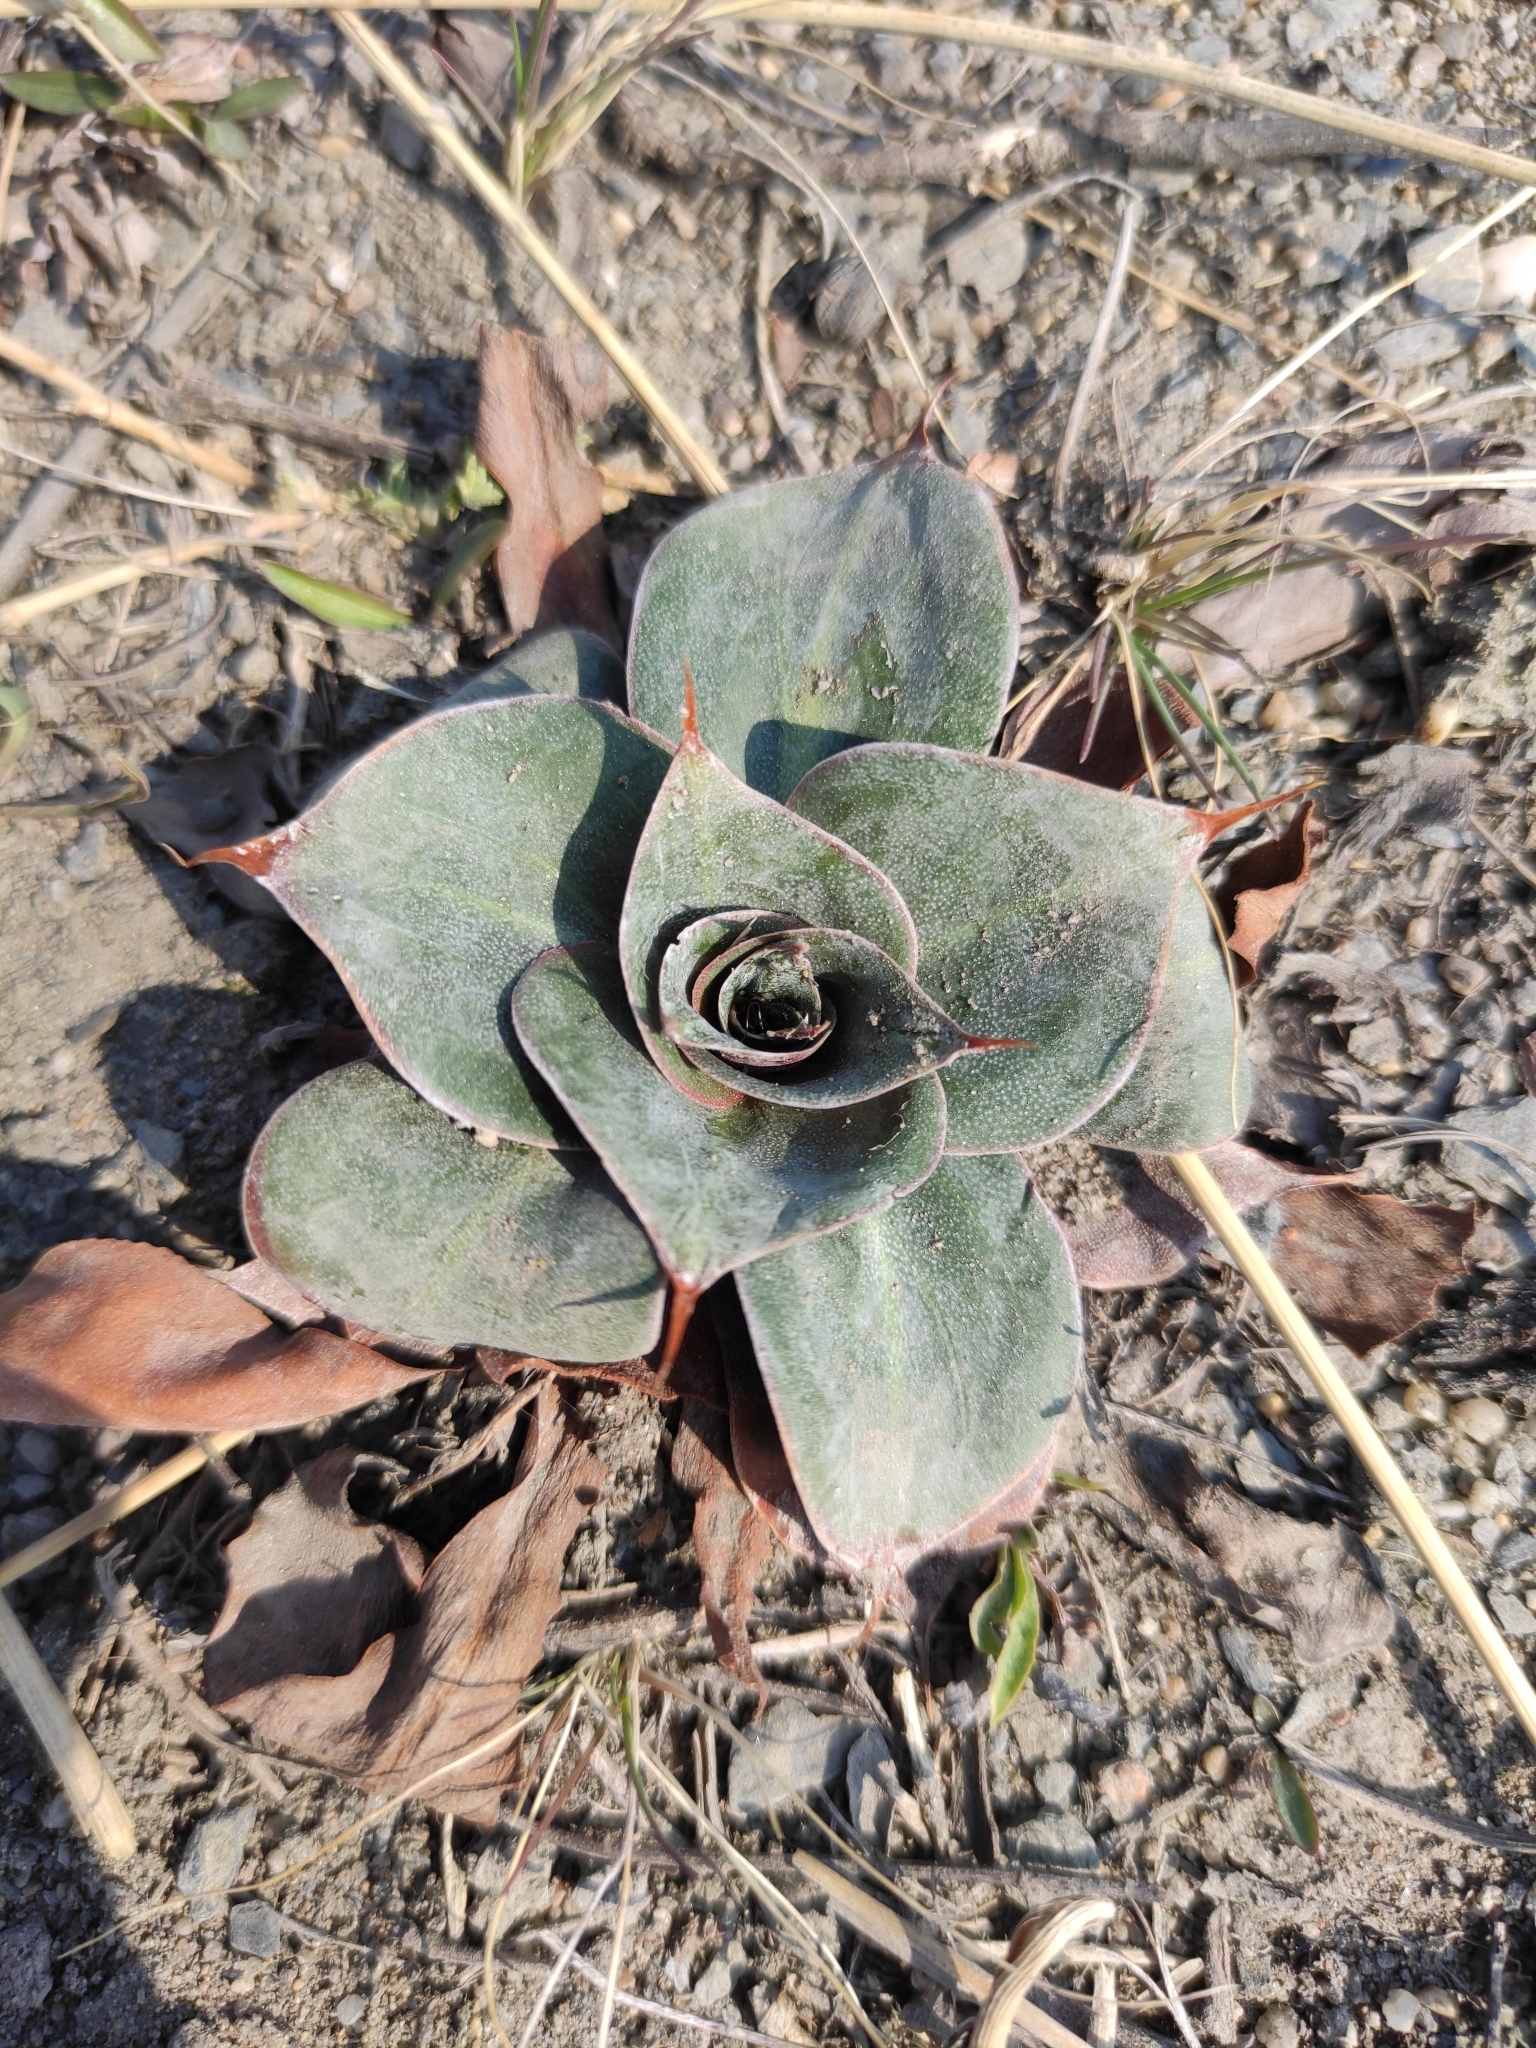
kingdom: Plantae
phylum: Tracheophyta
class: Magnoliopsida
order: Caryophyllales
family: Plumbaginaceae
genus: Goniolimon
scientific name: Goniolimon speciosum
